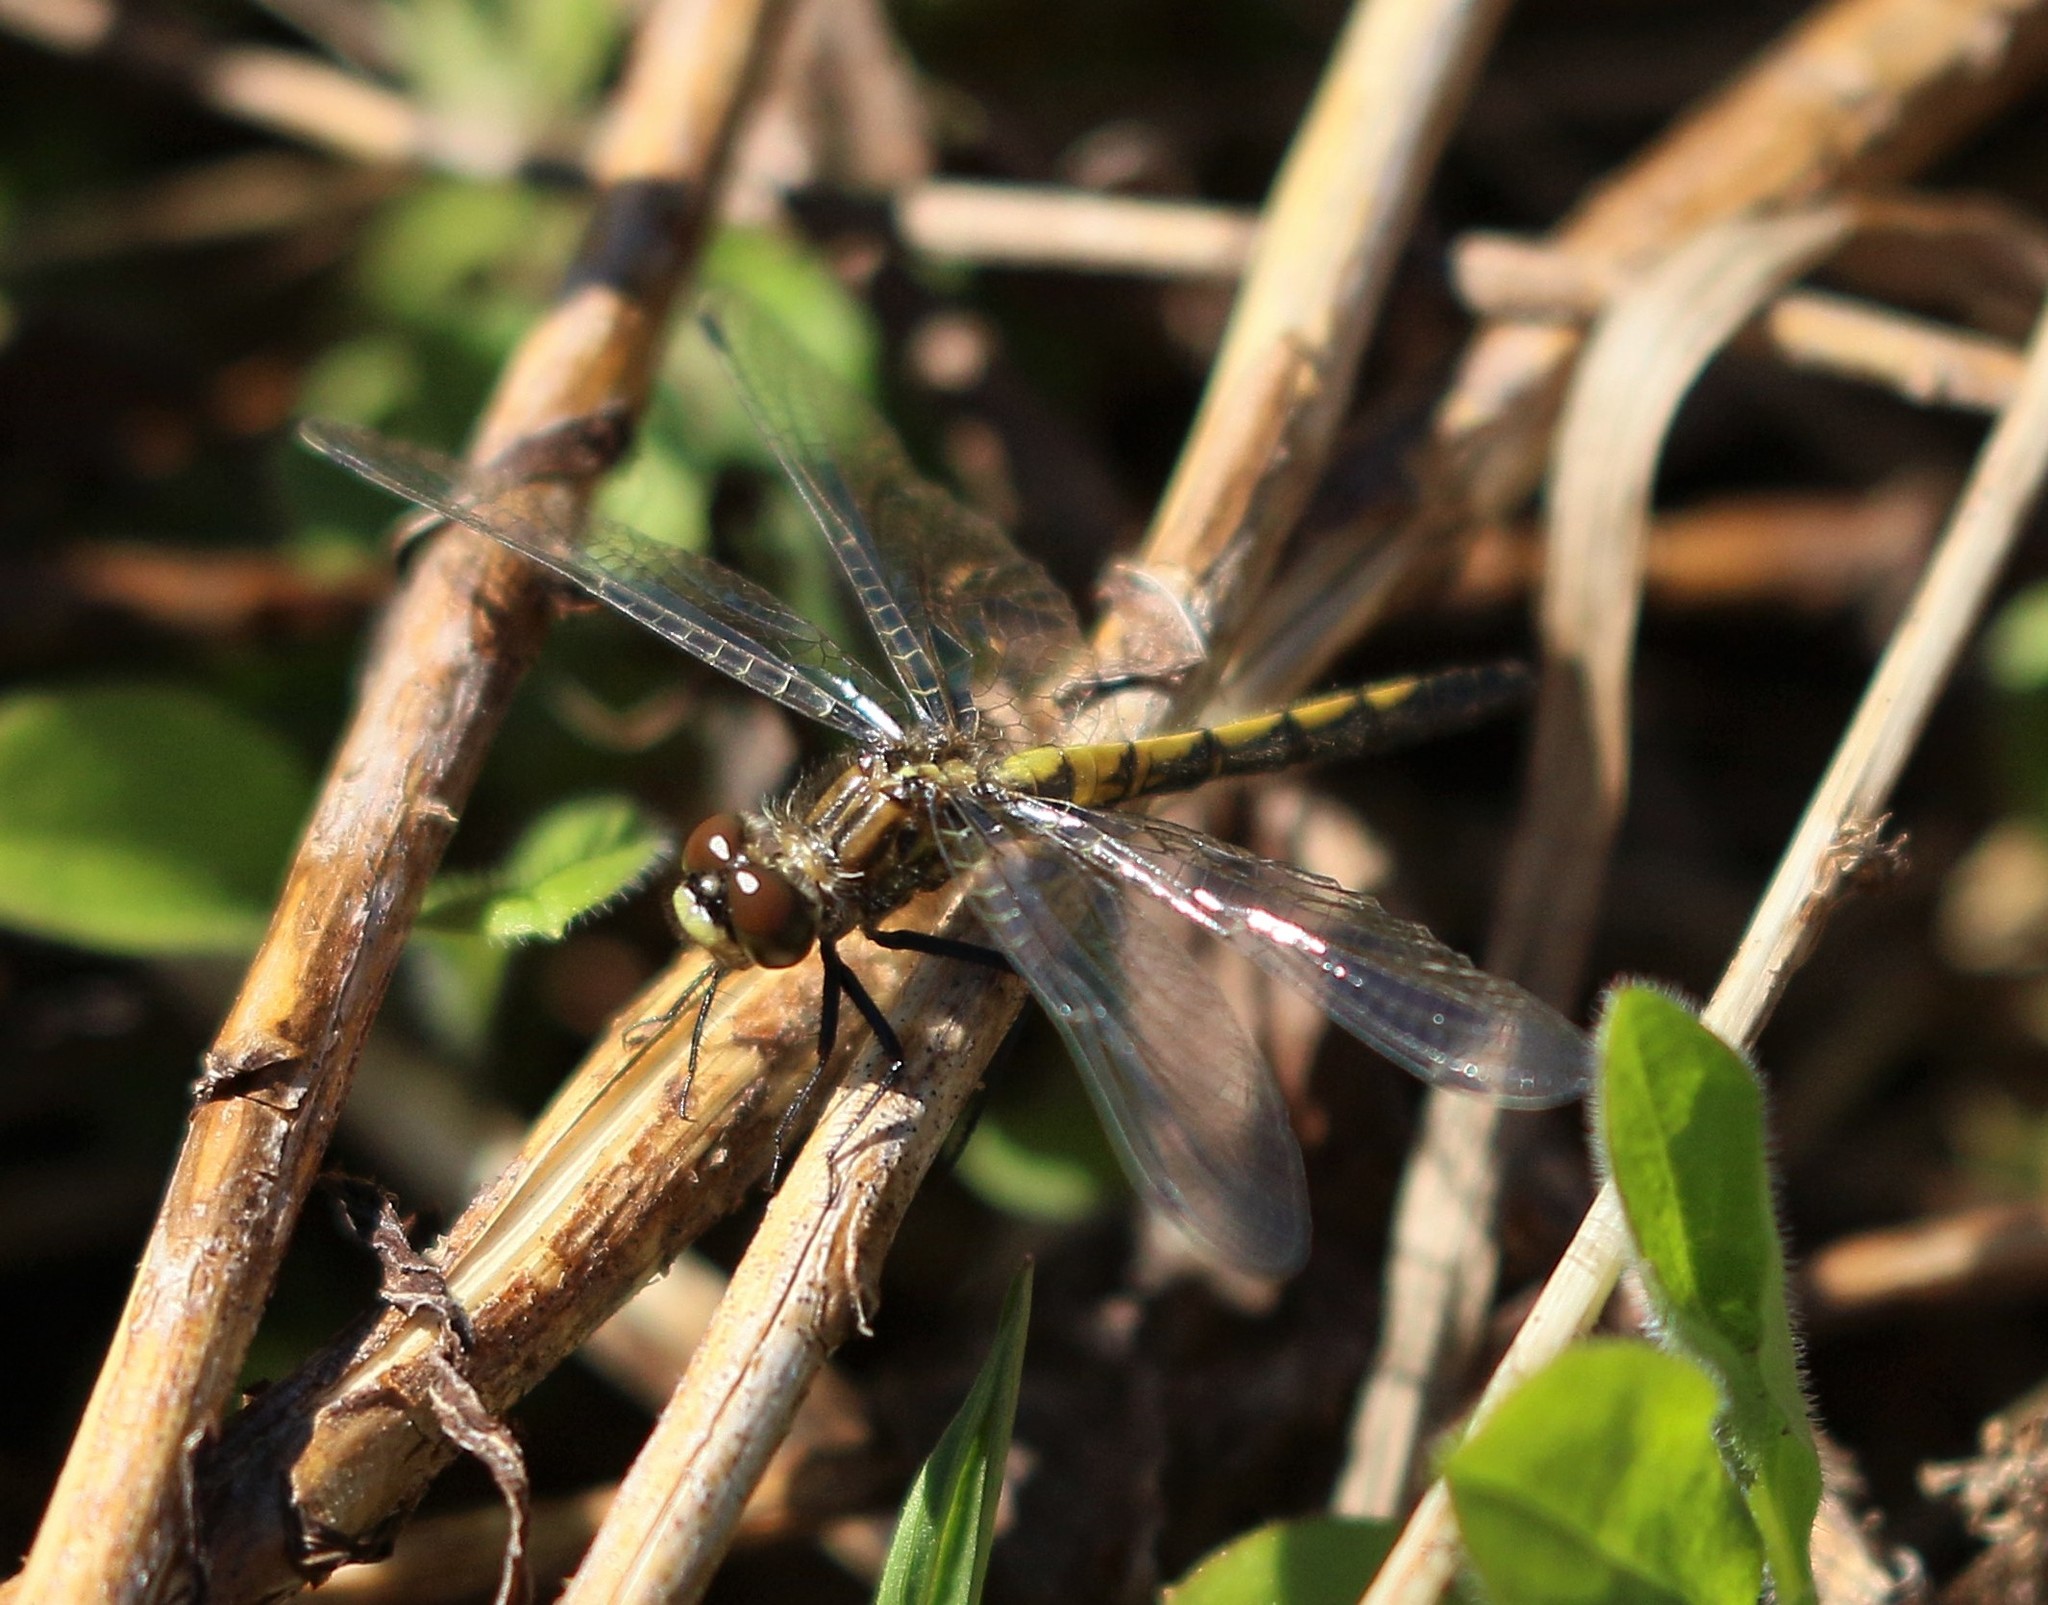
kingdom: Animalia
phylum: Arthropoda
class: Insecta
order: Odonata
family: Libellulidae
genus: Leucorrhinia
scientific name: Leucorrhinia hudsonica
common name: Hudsonian whiteface
